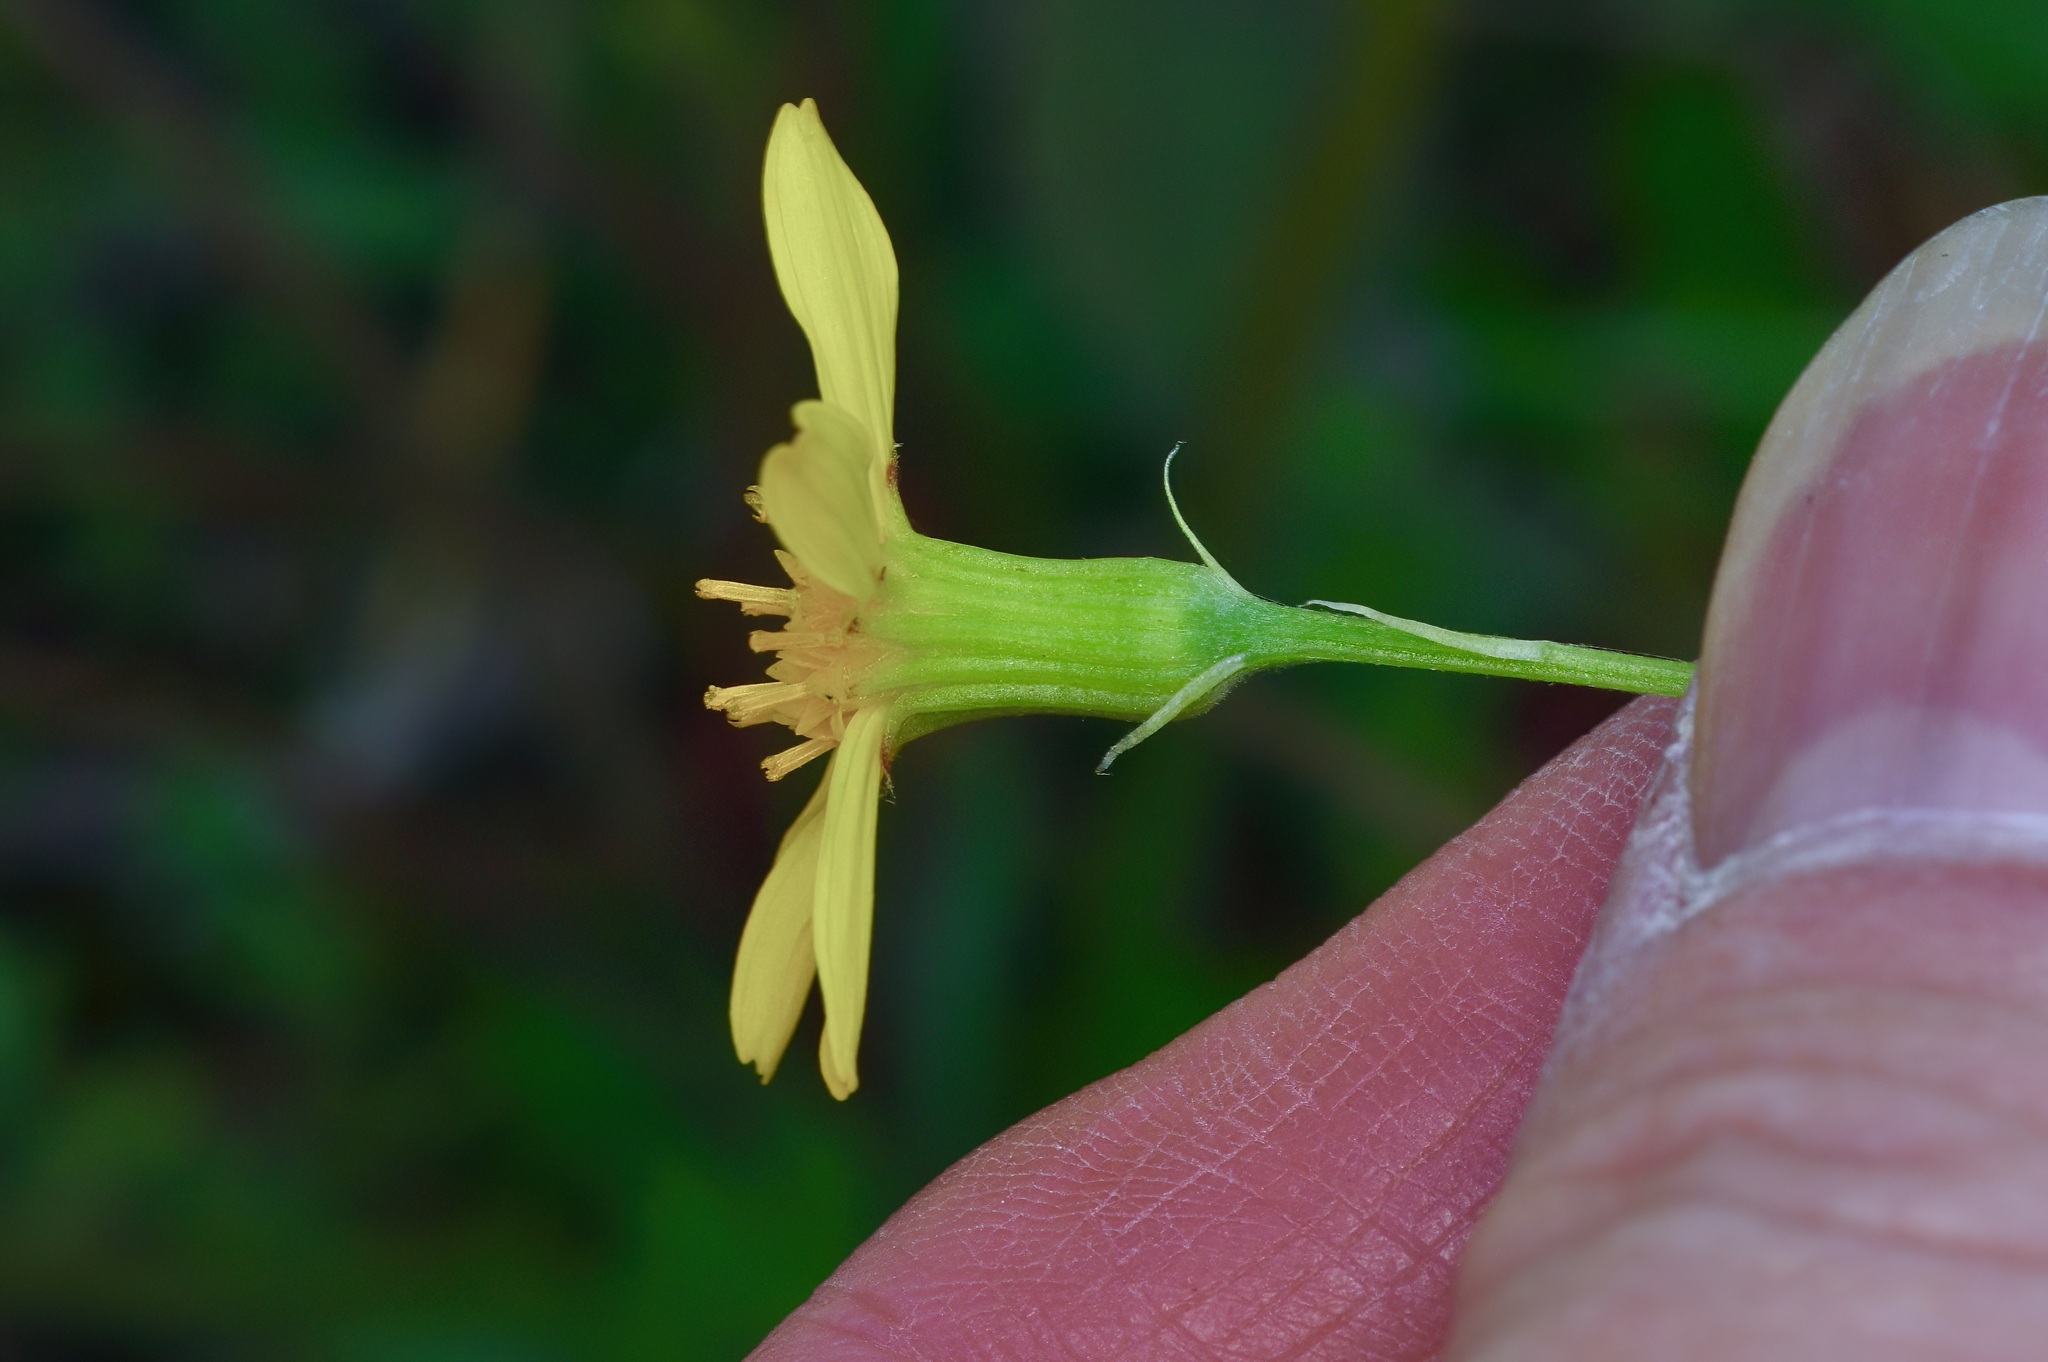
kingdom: Plantae
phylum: Tracheophyta
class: Magnoliopsida
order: Asterales
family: Asteraceae
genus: Senecio
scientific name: Senecio ampullaceus
